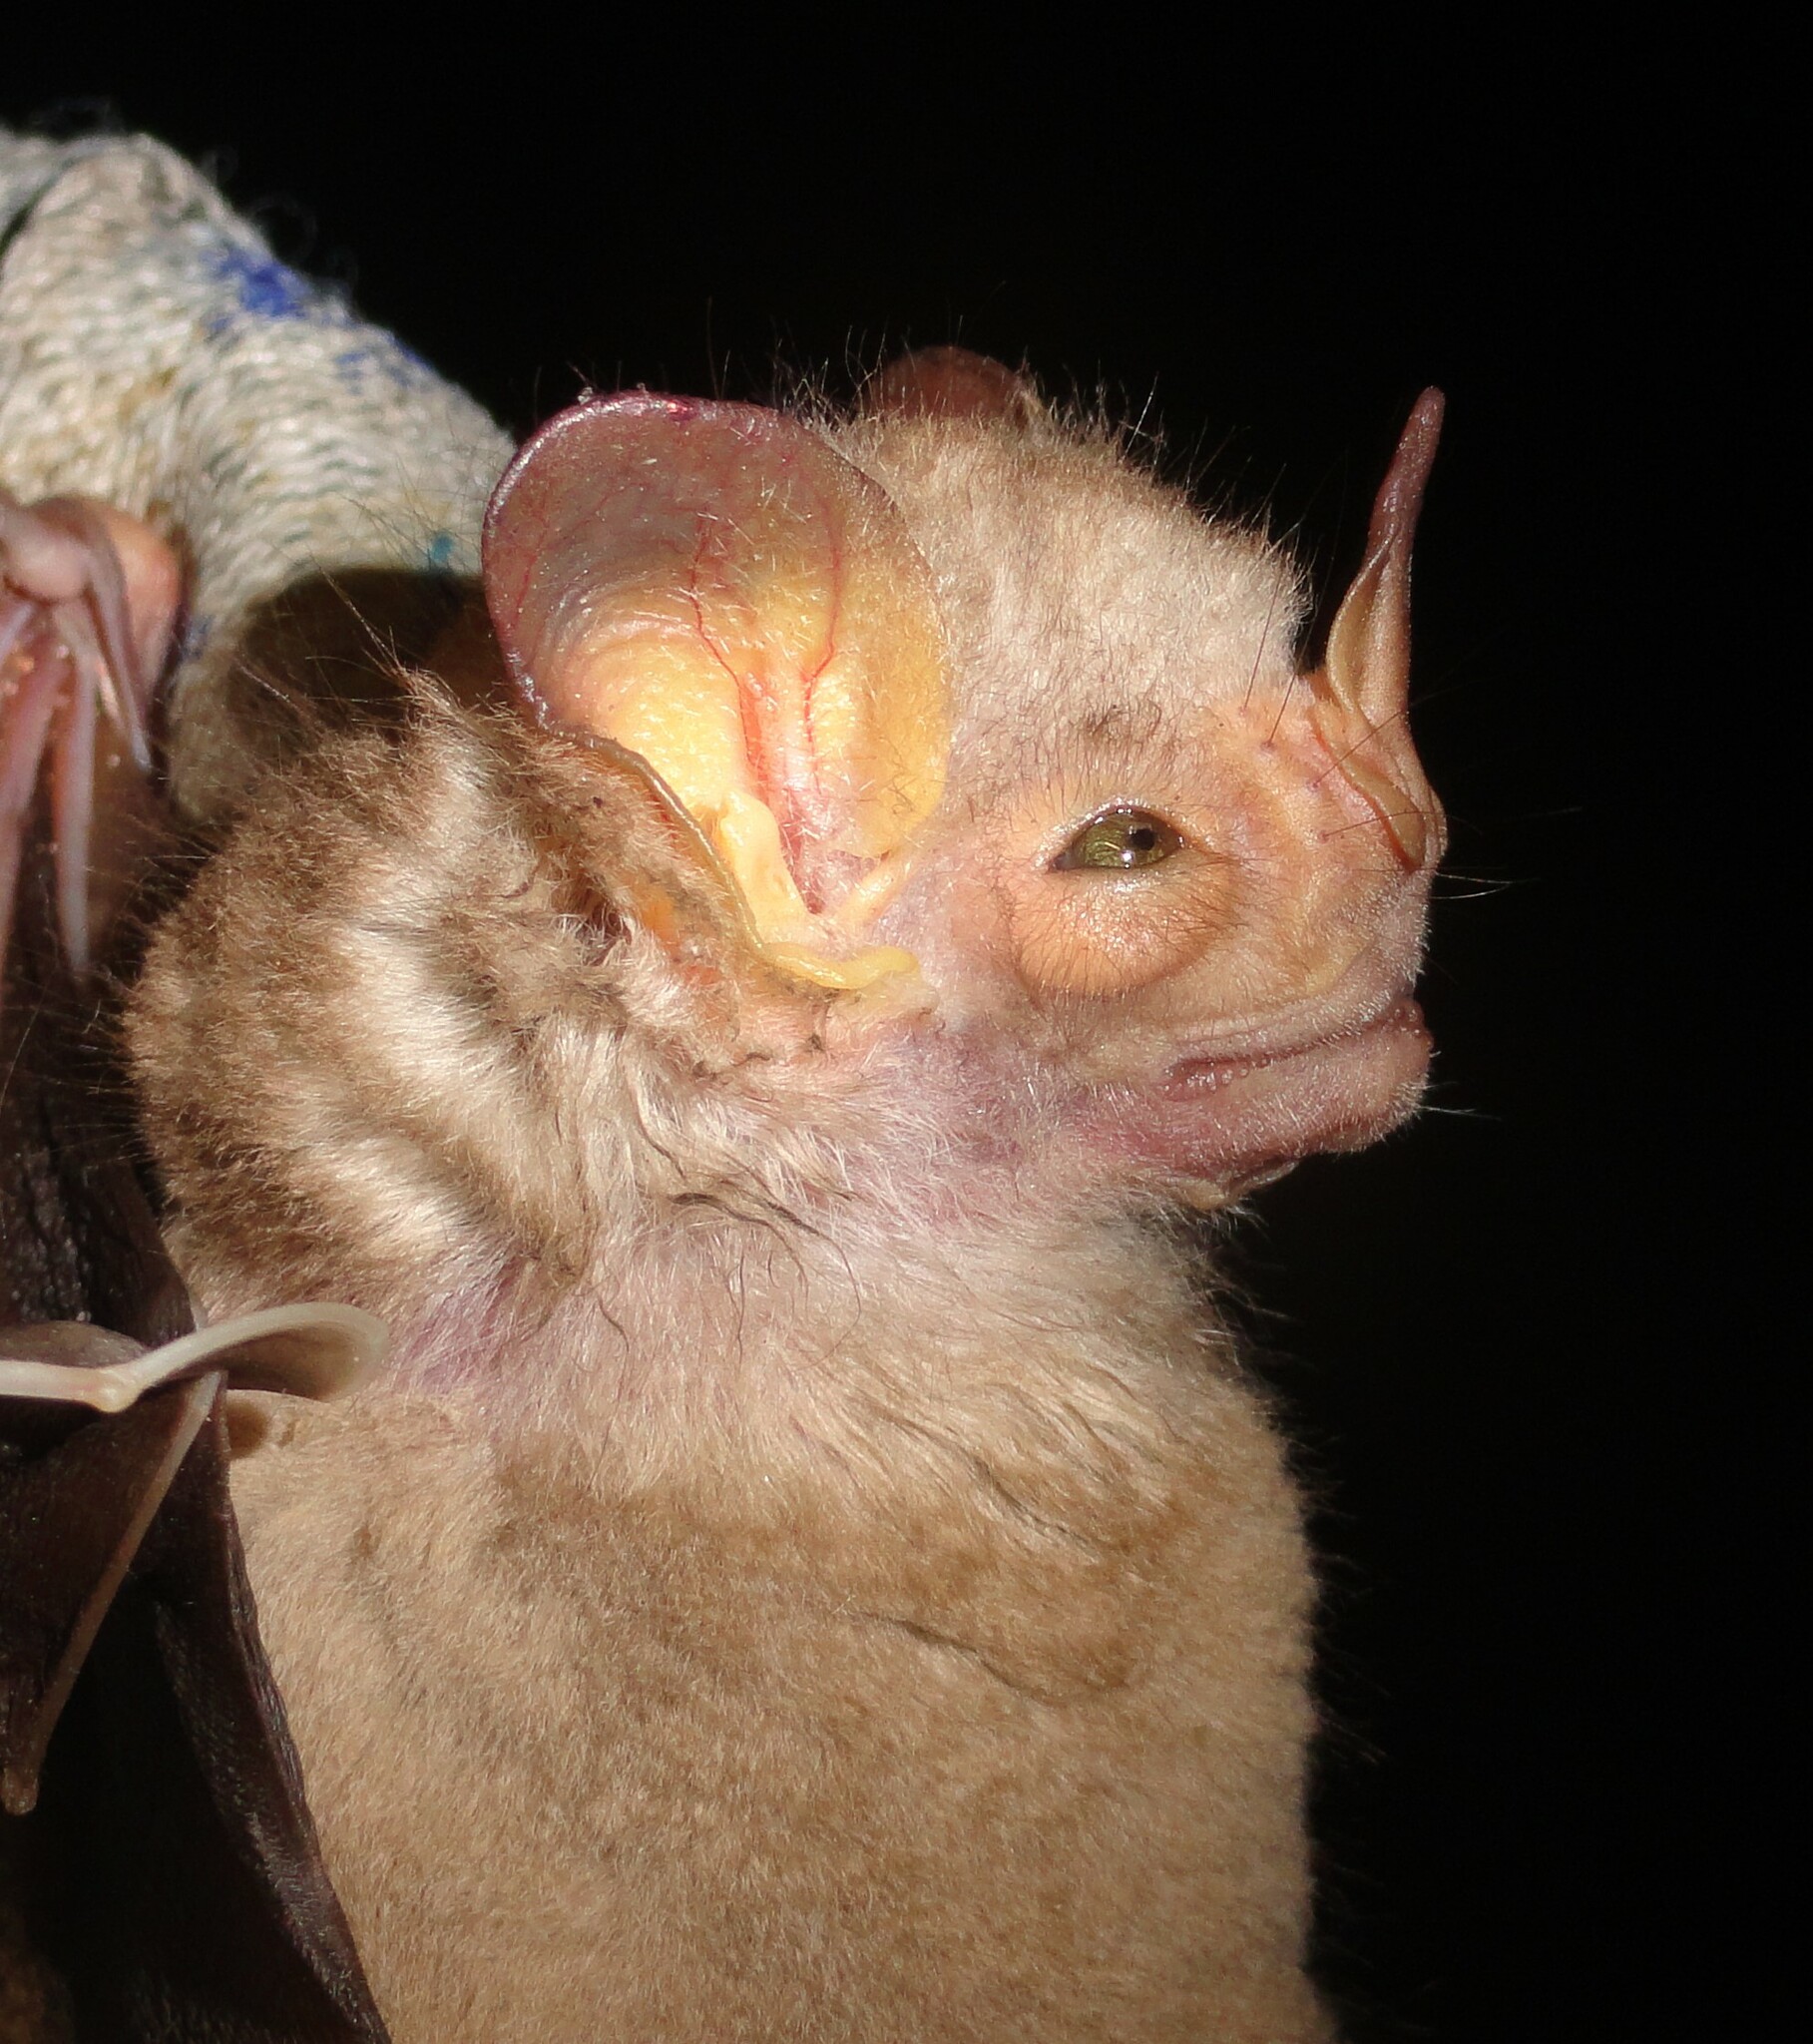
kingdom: Animalia
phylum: Chordata
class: Mammalia
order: Chiroptera
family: Phyllostomidae
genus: Pygoderma
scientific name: Pygoderma bilabiatum
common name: Ipanema broad-nosed bat
